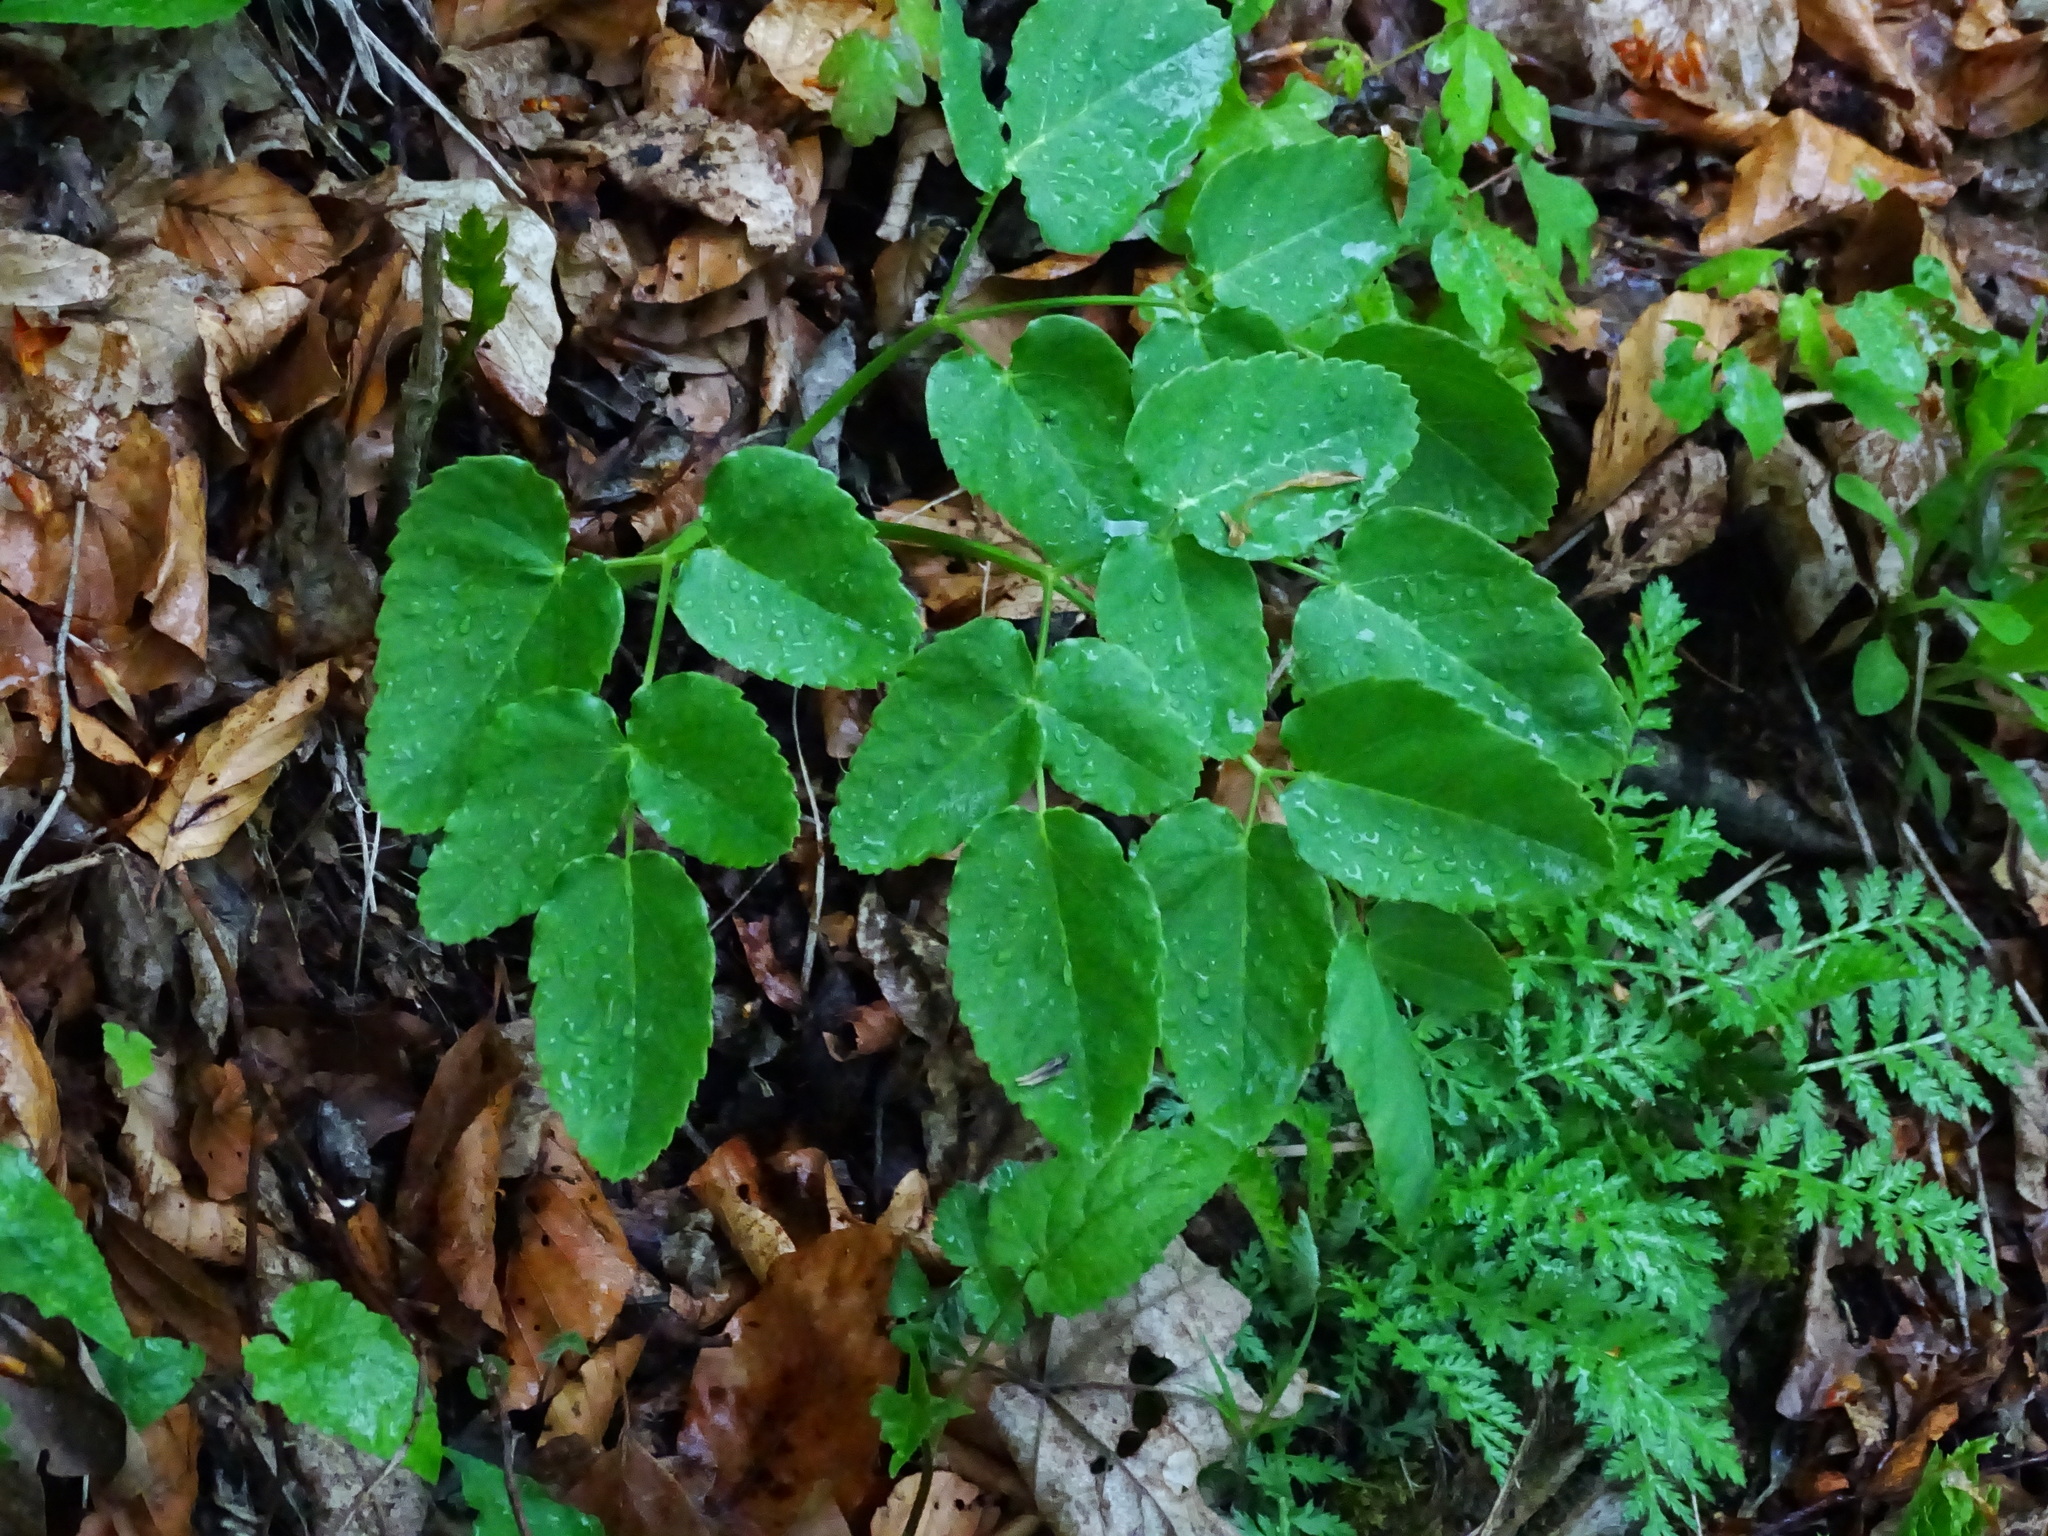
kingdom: Plantae
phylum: Tracheophyta
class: Magnoliopsida
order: Apiales
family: Apiaceae
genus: Laserpitium
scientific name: Laserpitium latifolium
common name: Broadleaf sermountain
